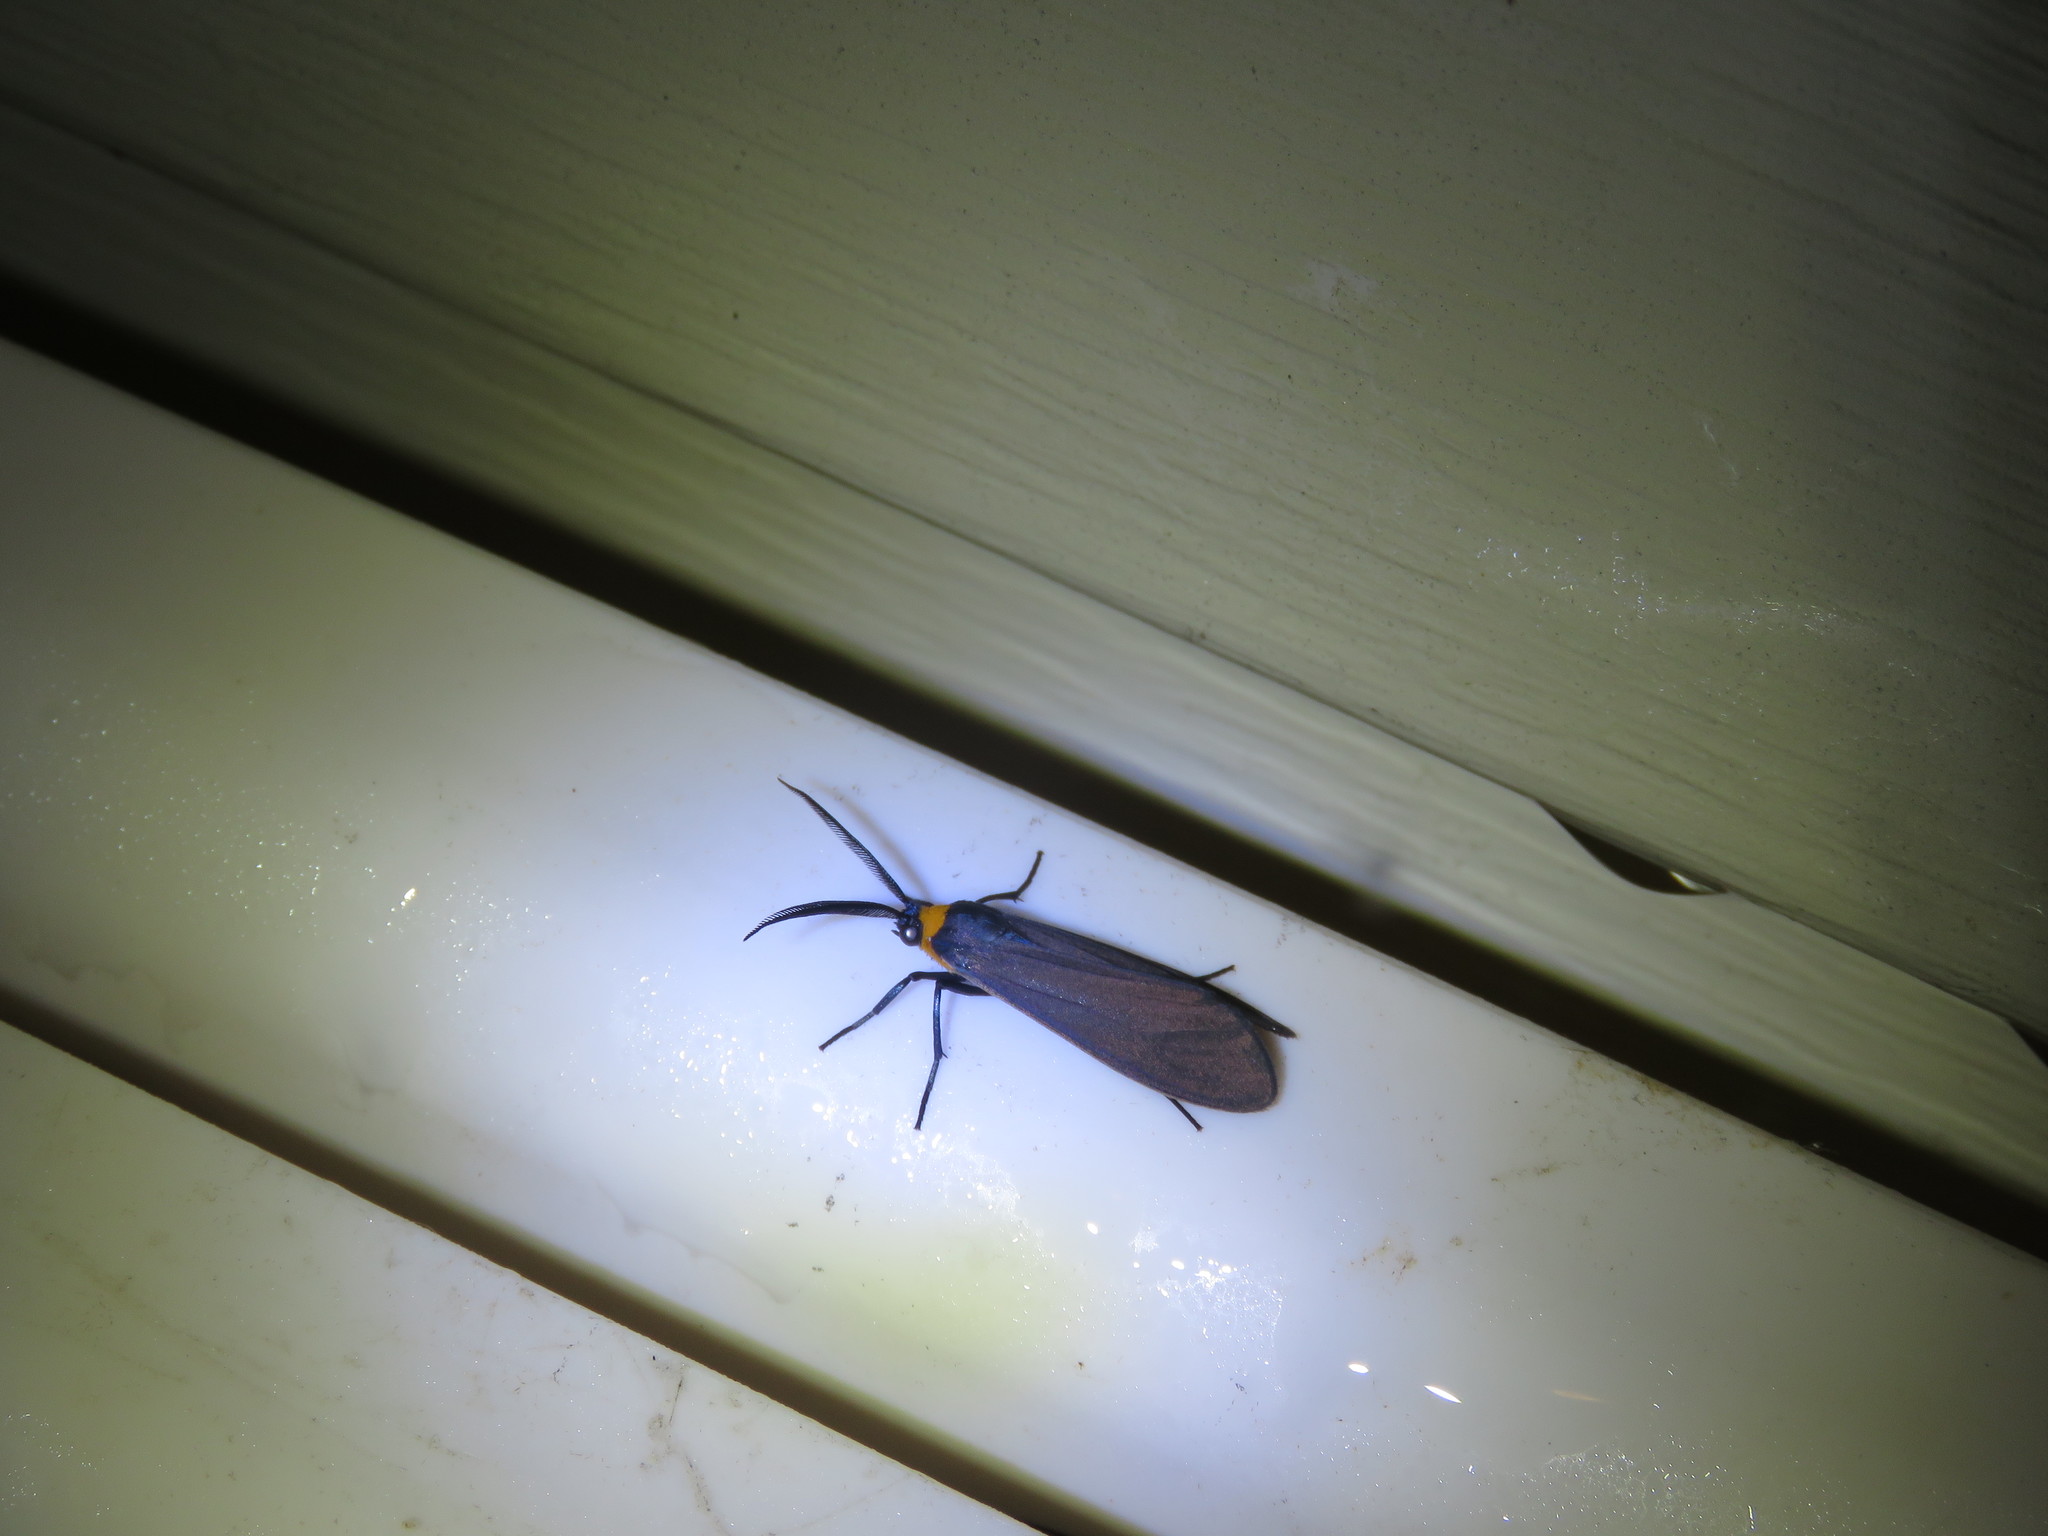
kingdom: Animalia
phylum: Arthropoda
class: Insecta
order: Lepidoptera
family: Erebidae
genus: Cisseps
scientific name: Cisseps fulvicollis
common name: Yellow-collared scape moth
